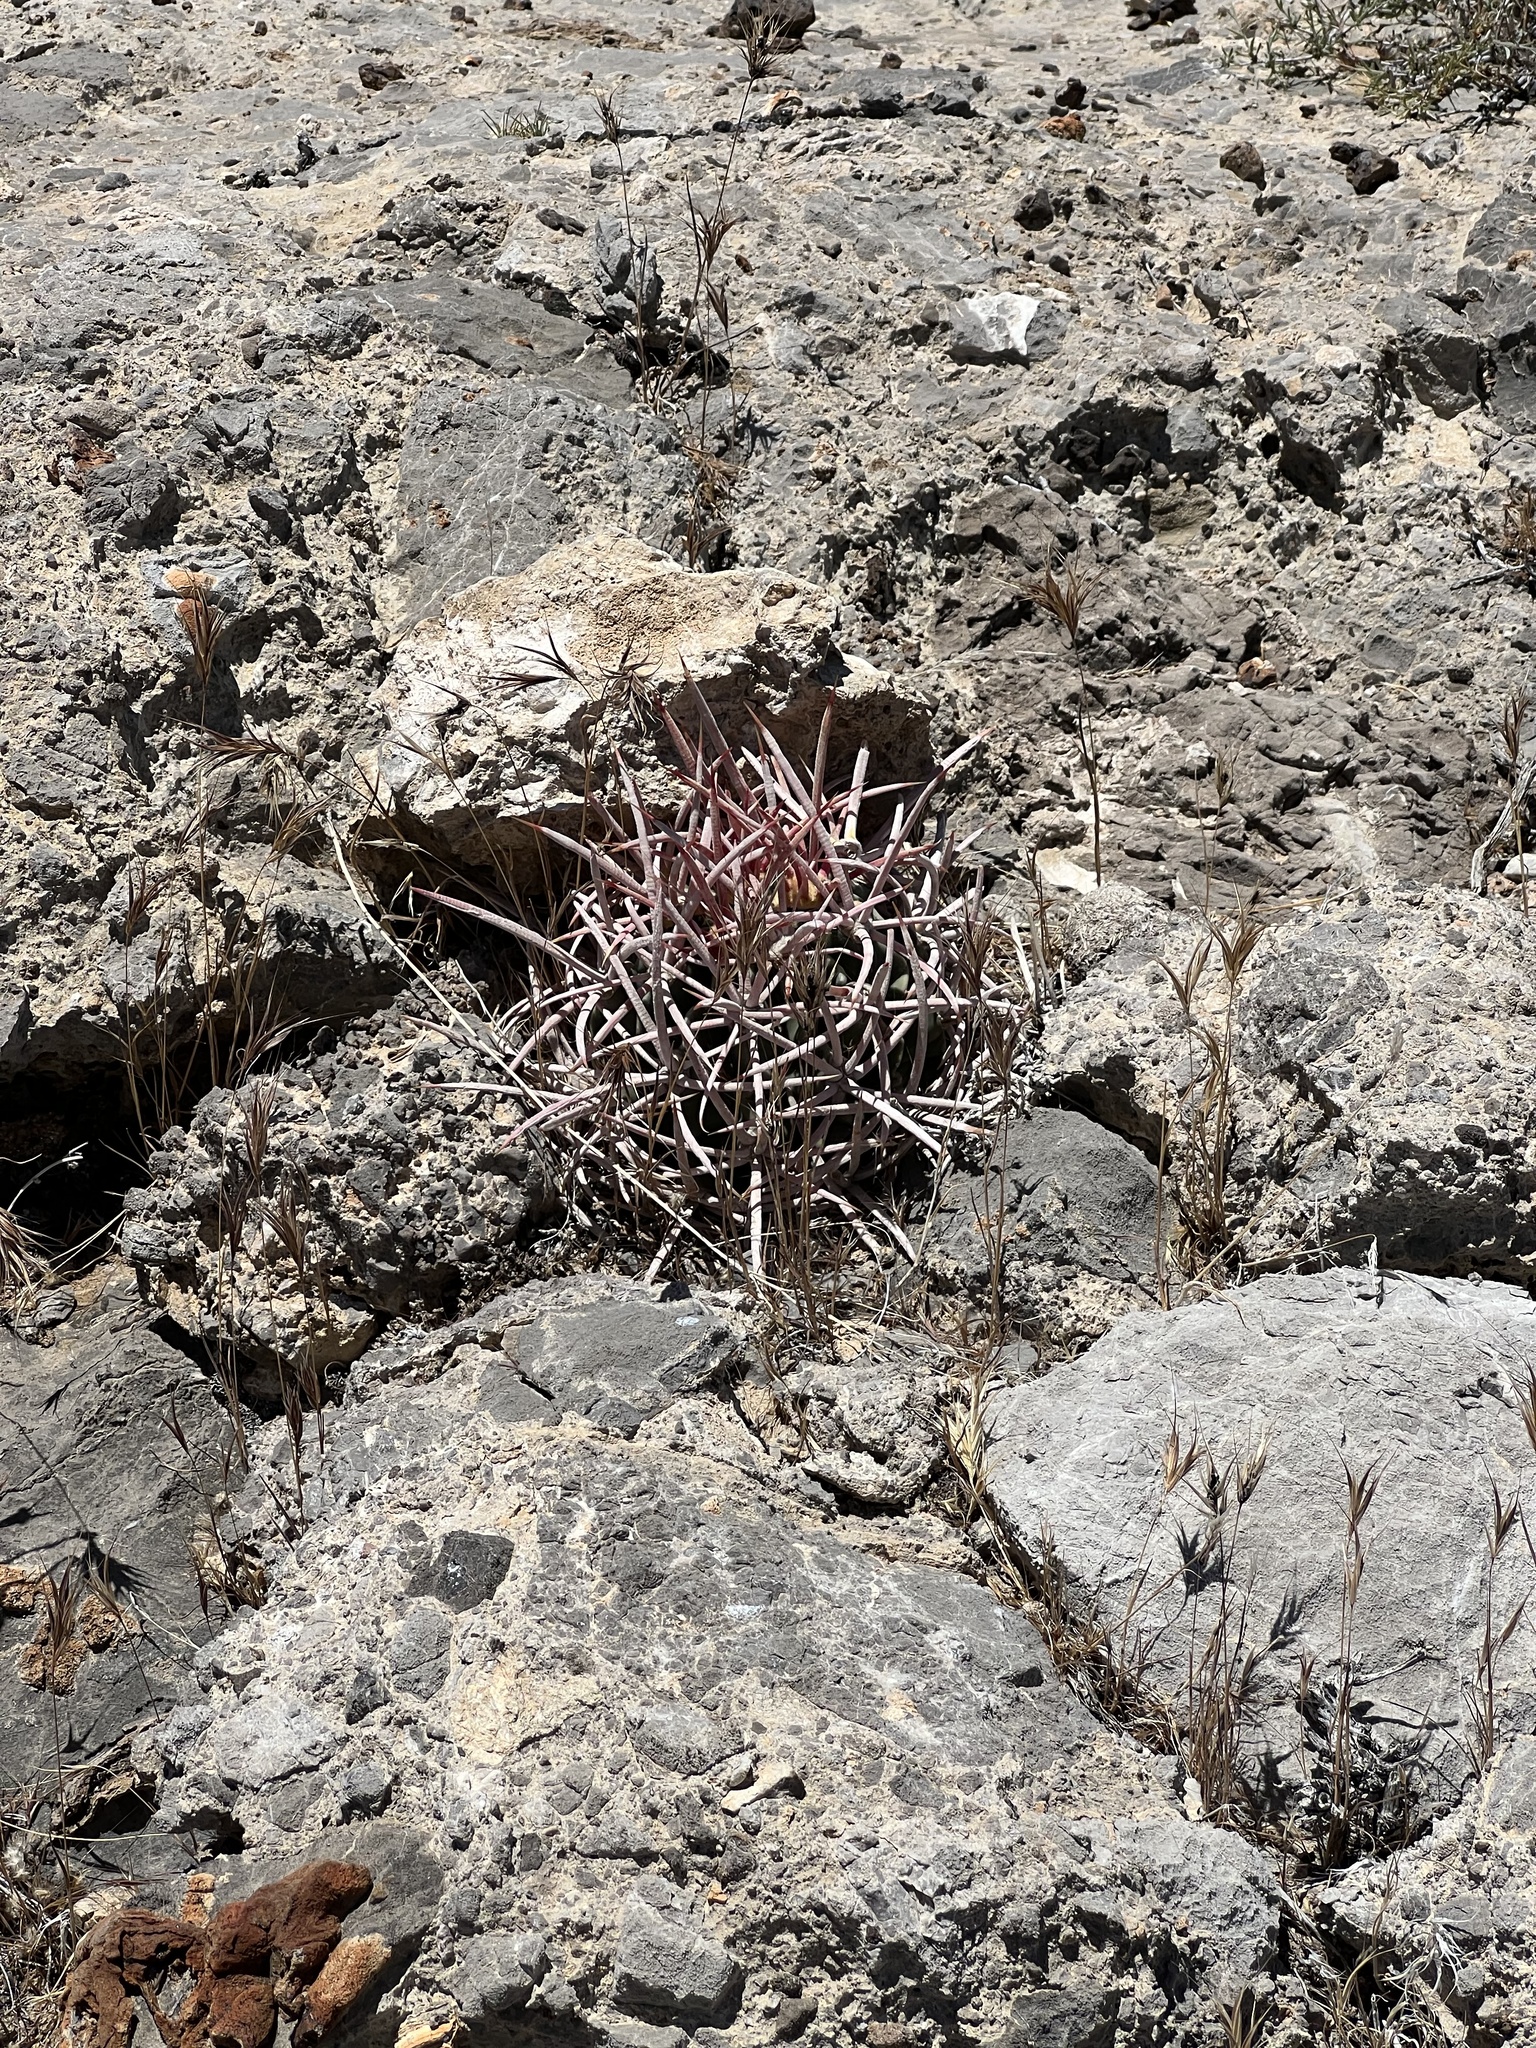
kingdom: Plantae
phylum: Tracheophyta
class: Magnoliopsida
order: Caryophyllales
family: Cactaceae
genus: Echinocactus
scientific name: Echinocactus polycephalus
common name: Cottontop cactus
